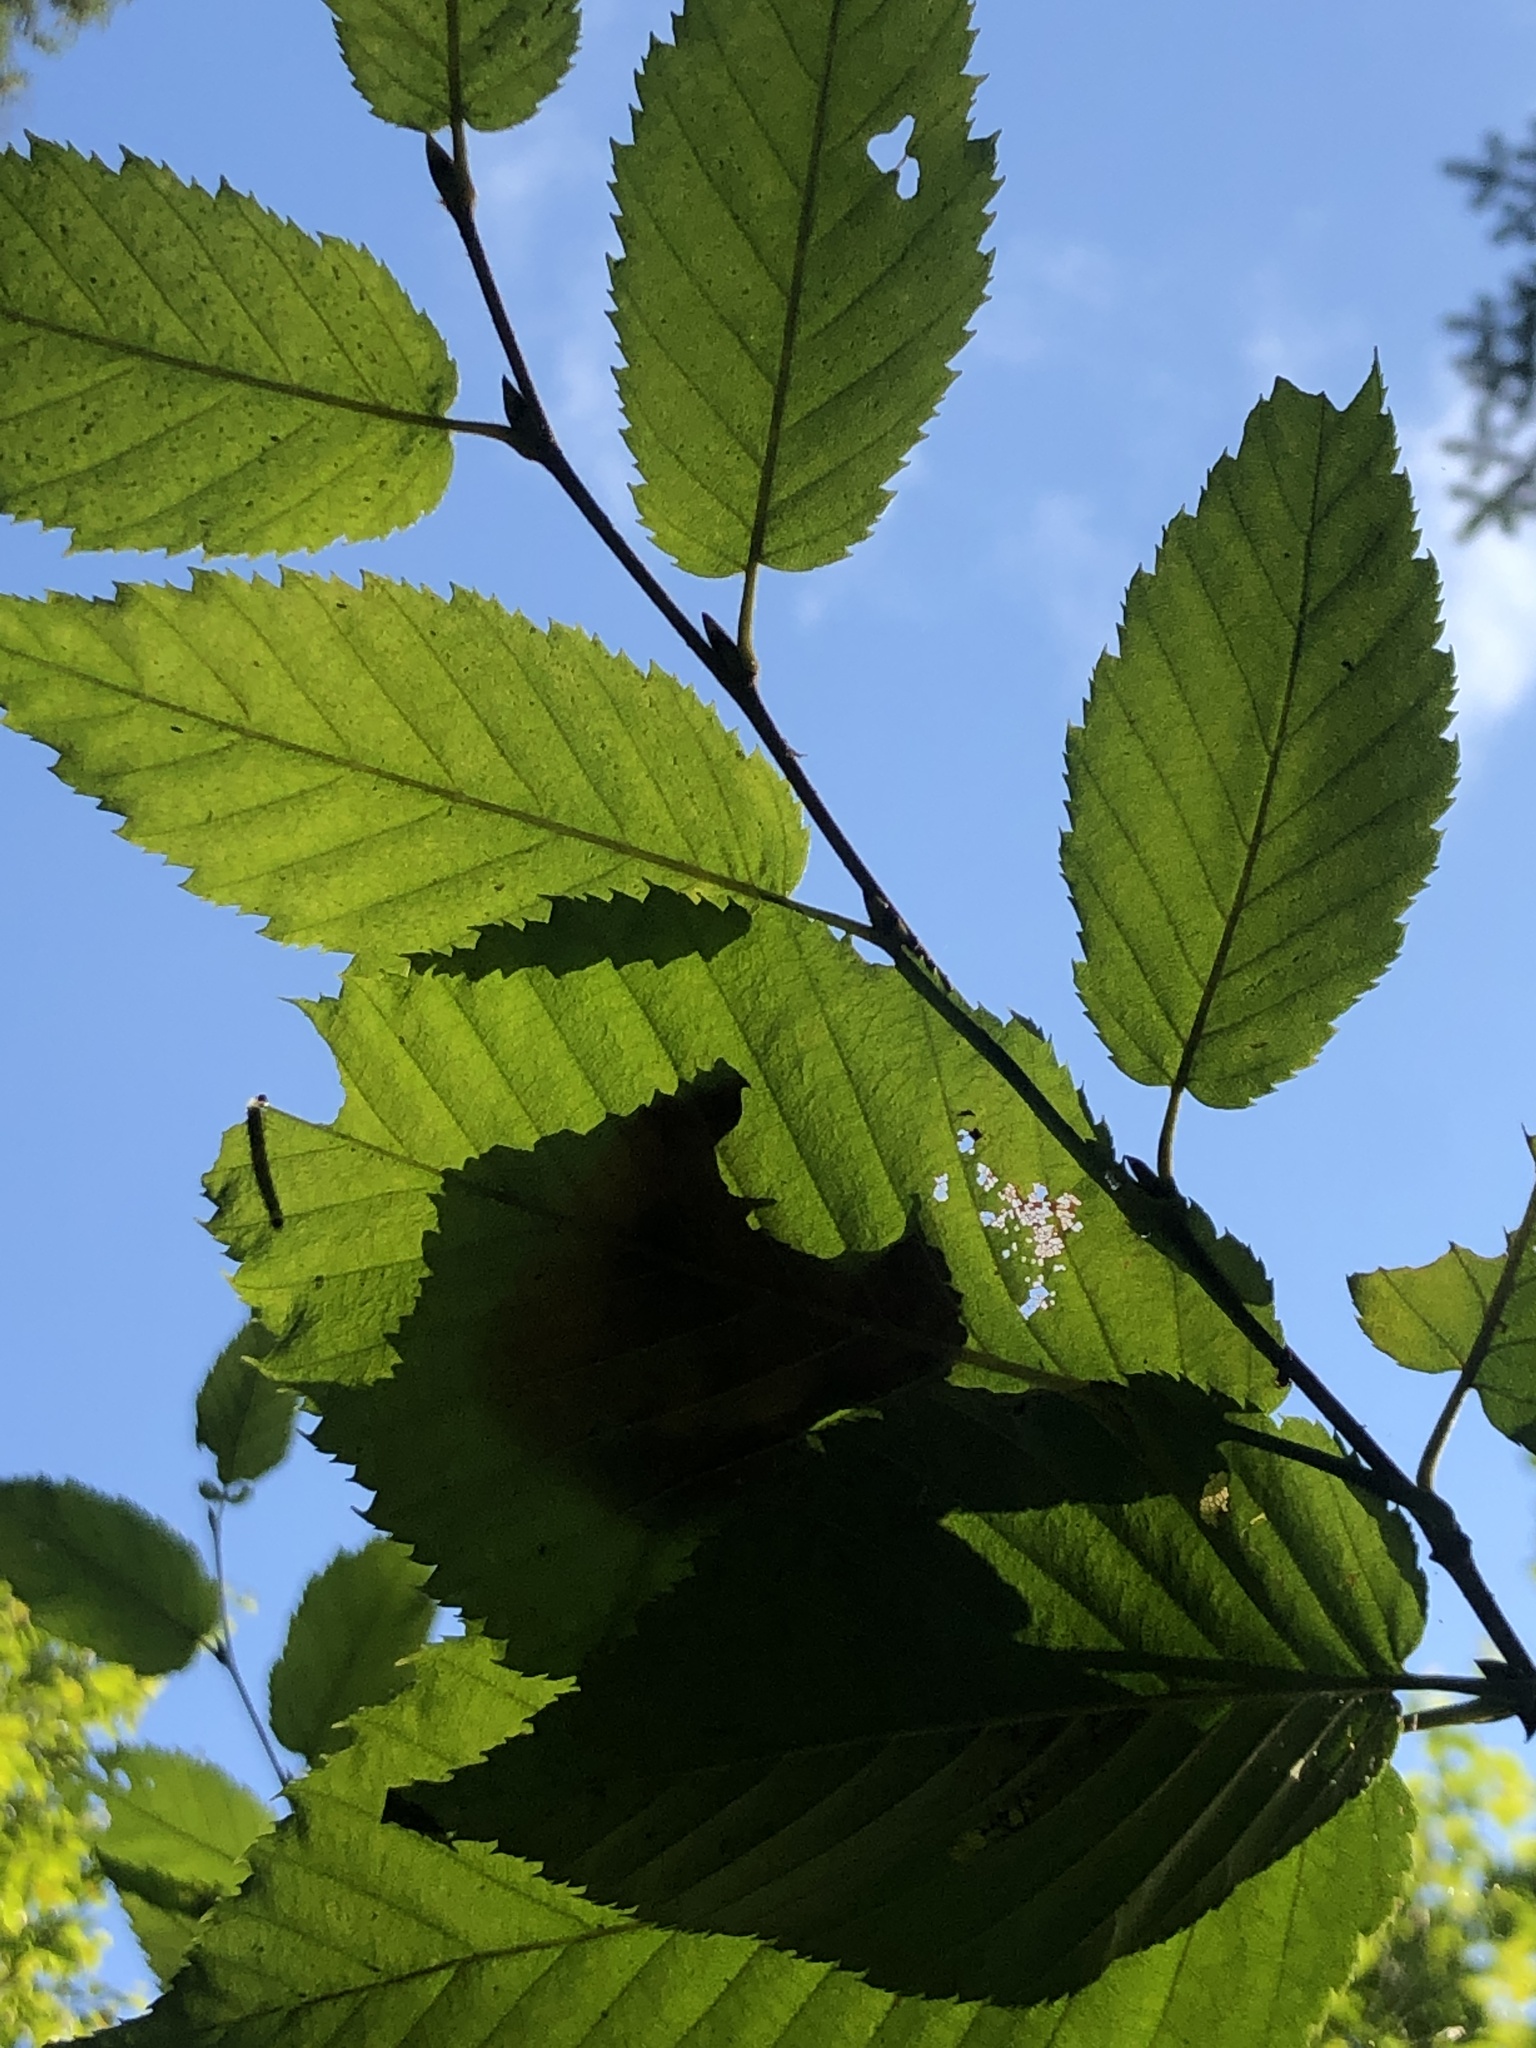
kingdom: Plantae
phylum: Tracheophyta
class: Magnoliopsida
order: Fagales
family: Betulaceae
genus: Betula
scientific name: Betula alleghaniensis
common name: Yellow birch
